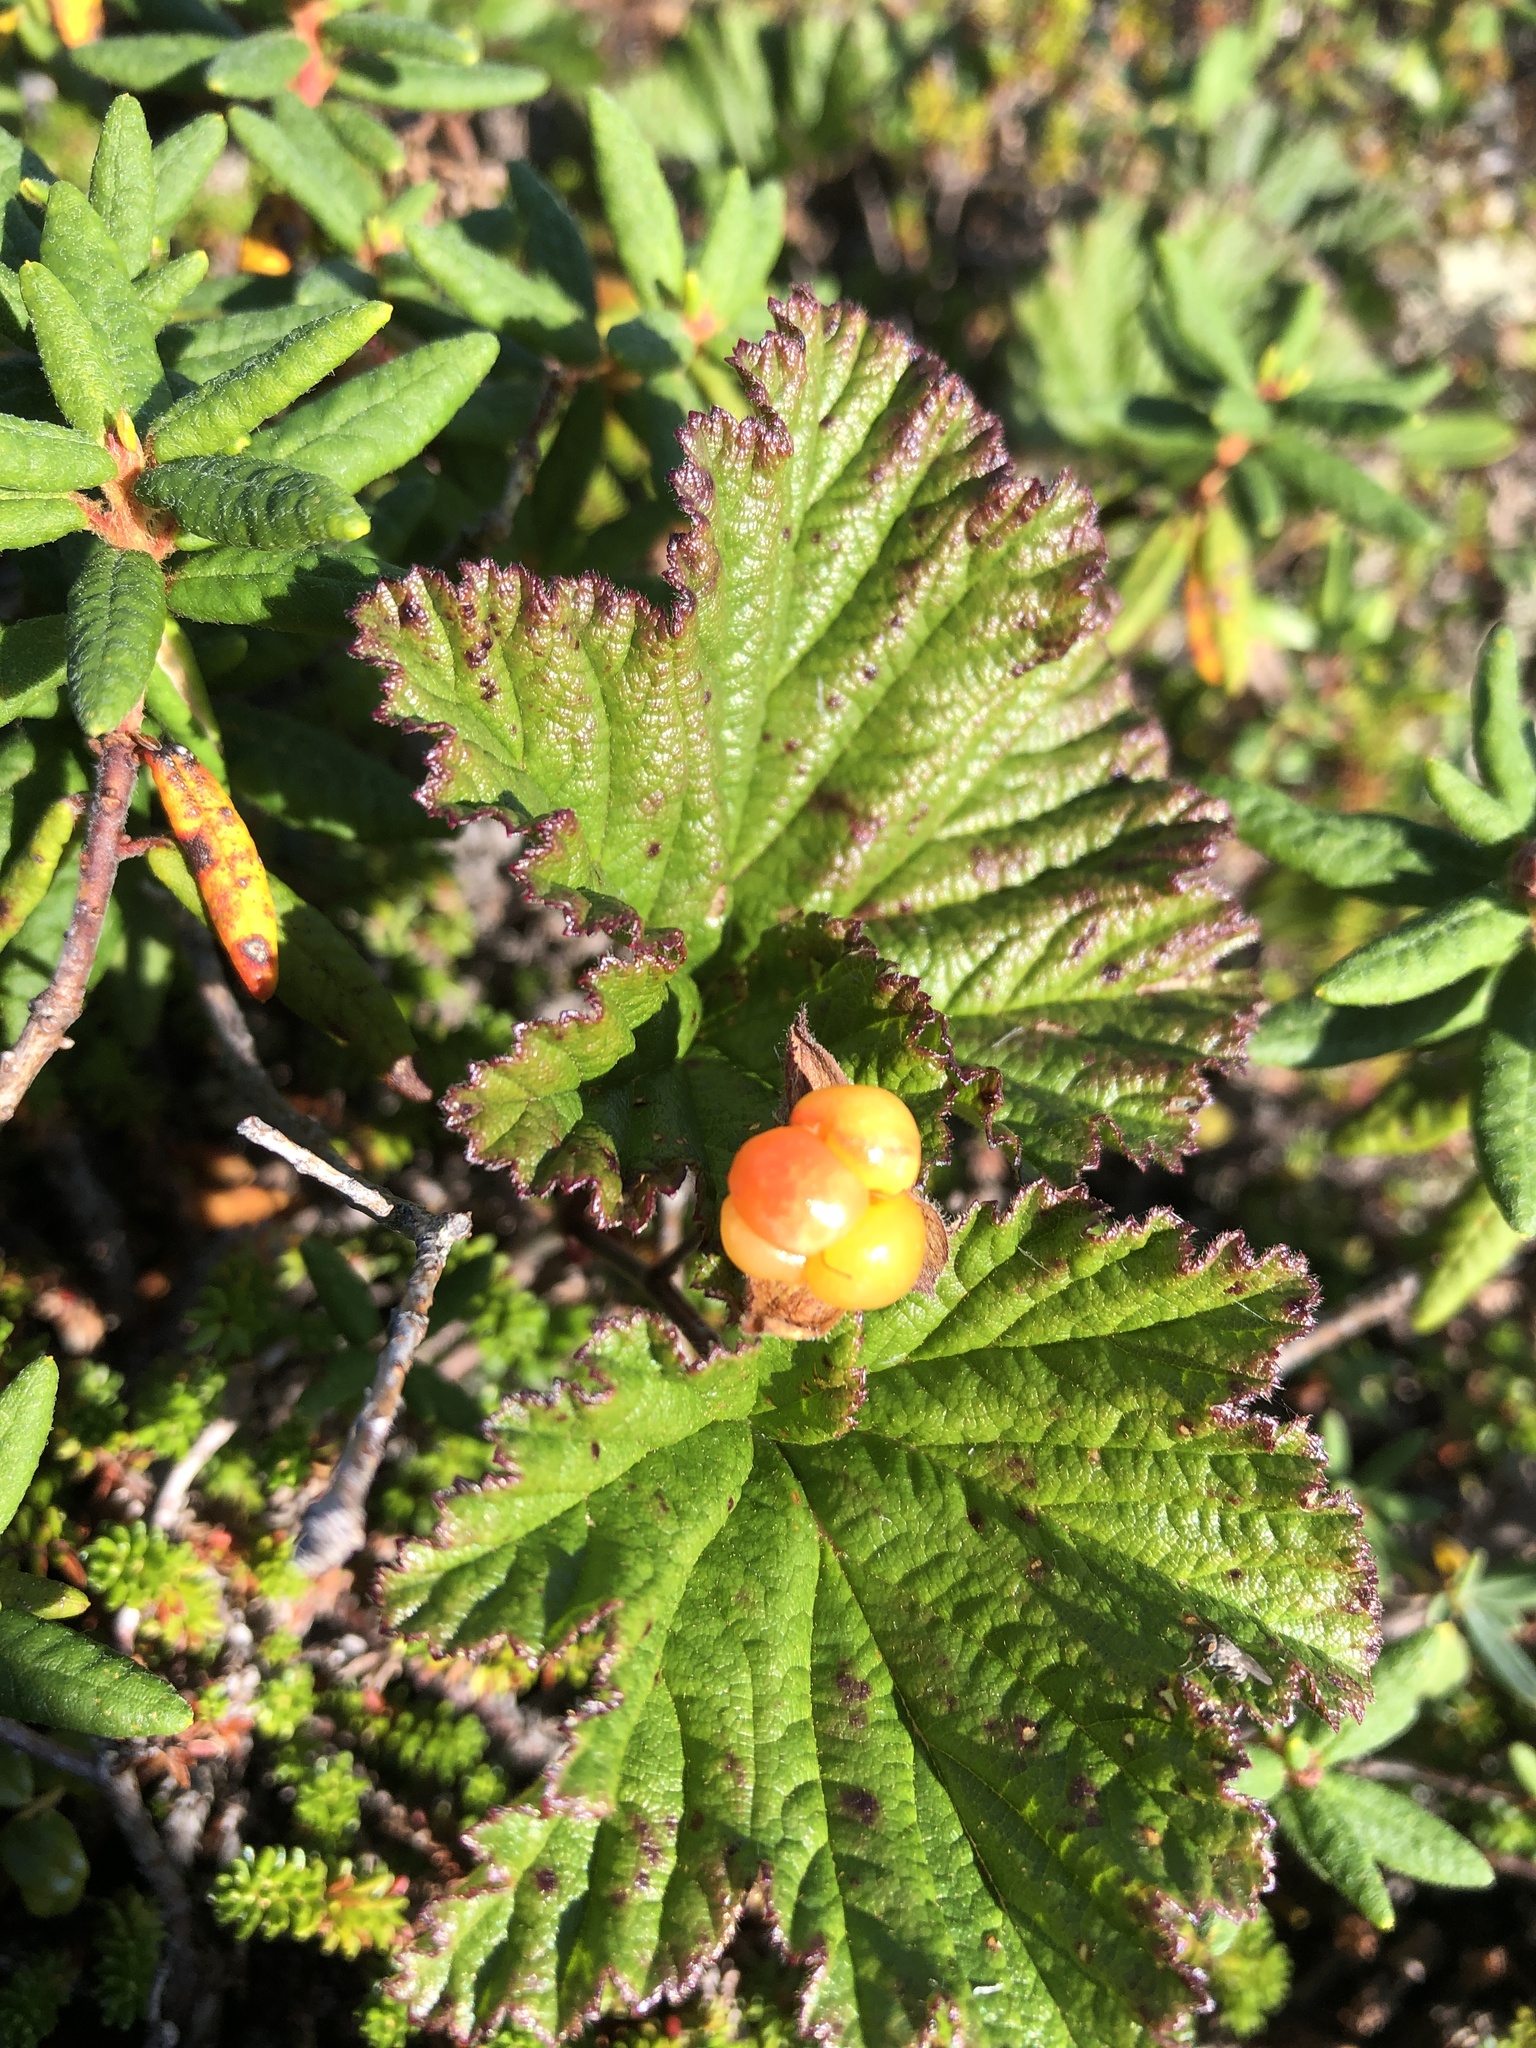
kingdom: Plantae
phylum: Tracheophyta
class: Magnoliopsida
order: Rosales
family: Rosaceae
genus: Rubus
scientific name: Rubus chamaemorus
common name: Cloudberry
